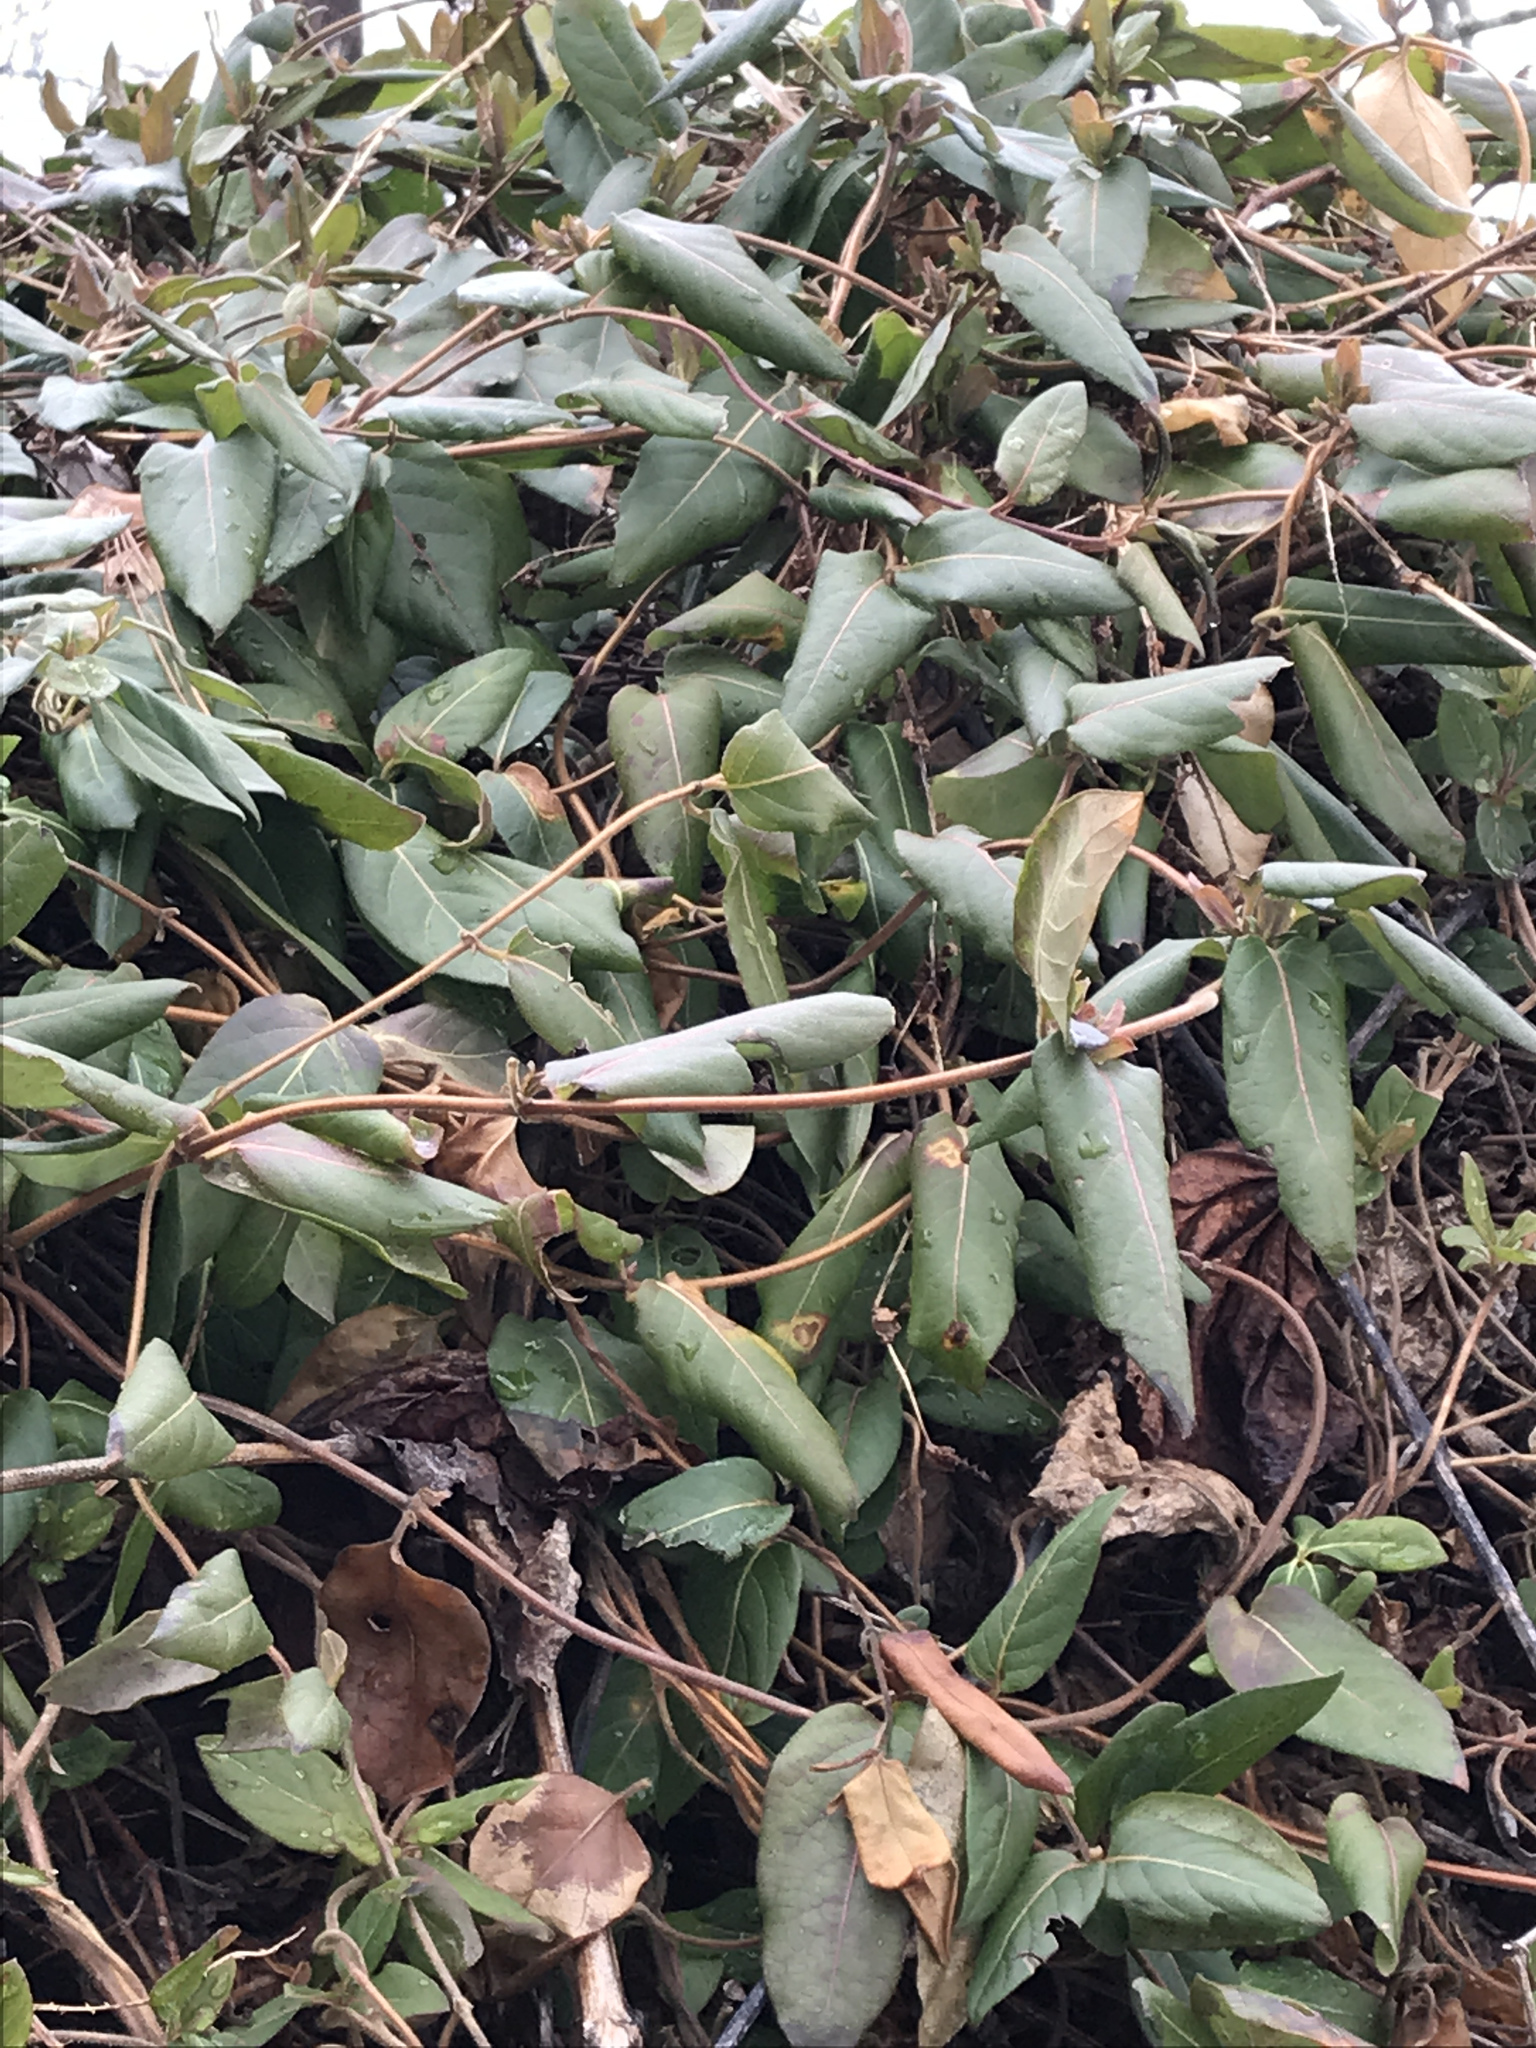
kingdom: Plantae
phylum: Tracheophyta
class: Magnoliopsida
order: Dipsacales
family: Caprifoliaceae
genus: Lonicera
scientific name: Lonicera japonica
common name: Japanese honeysuckle
